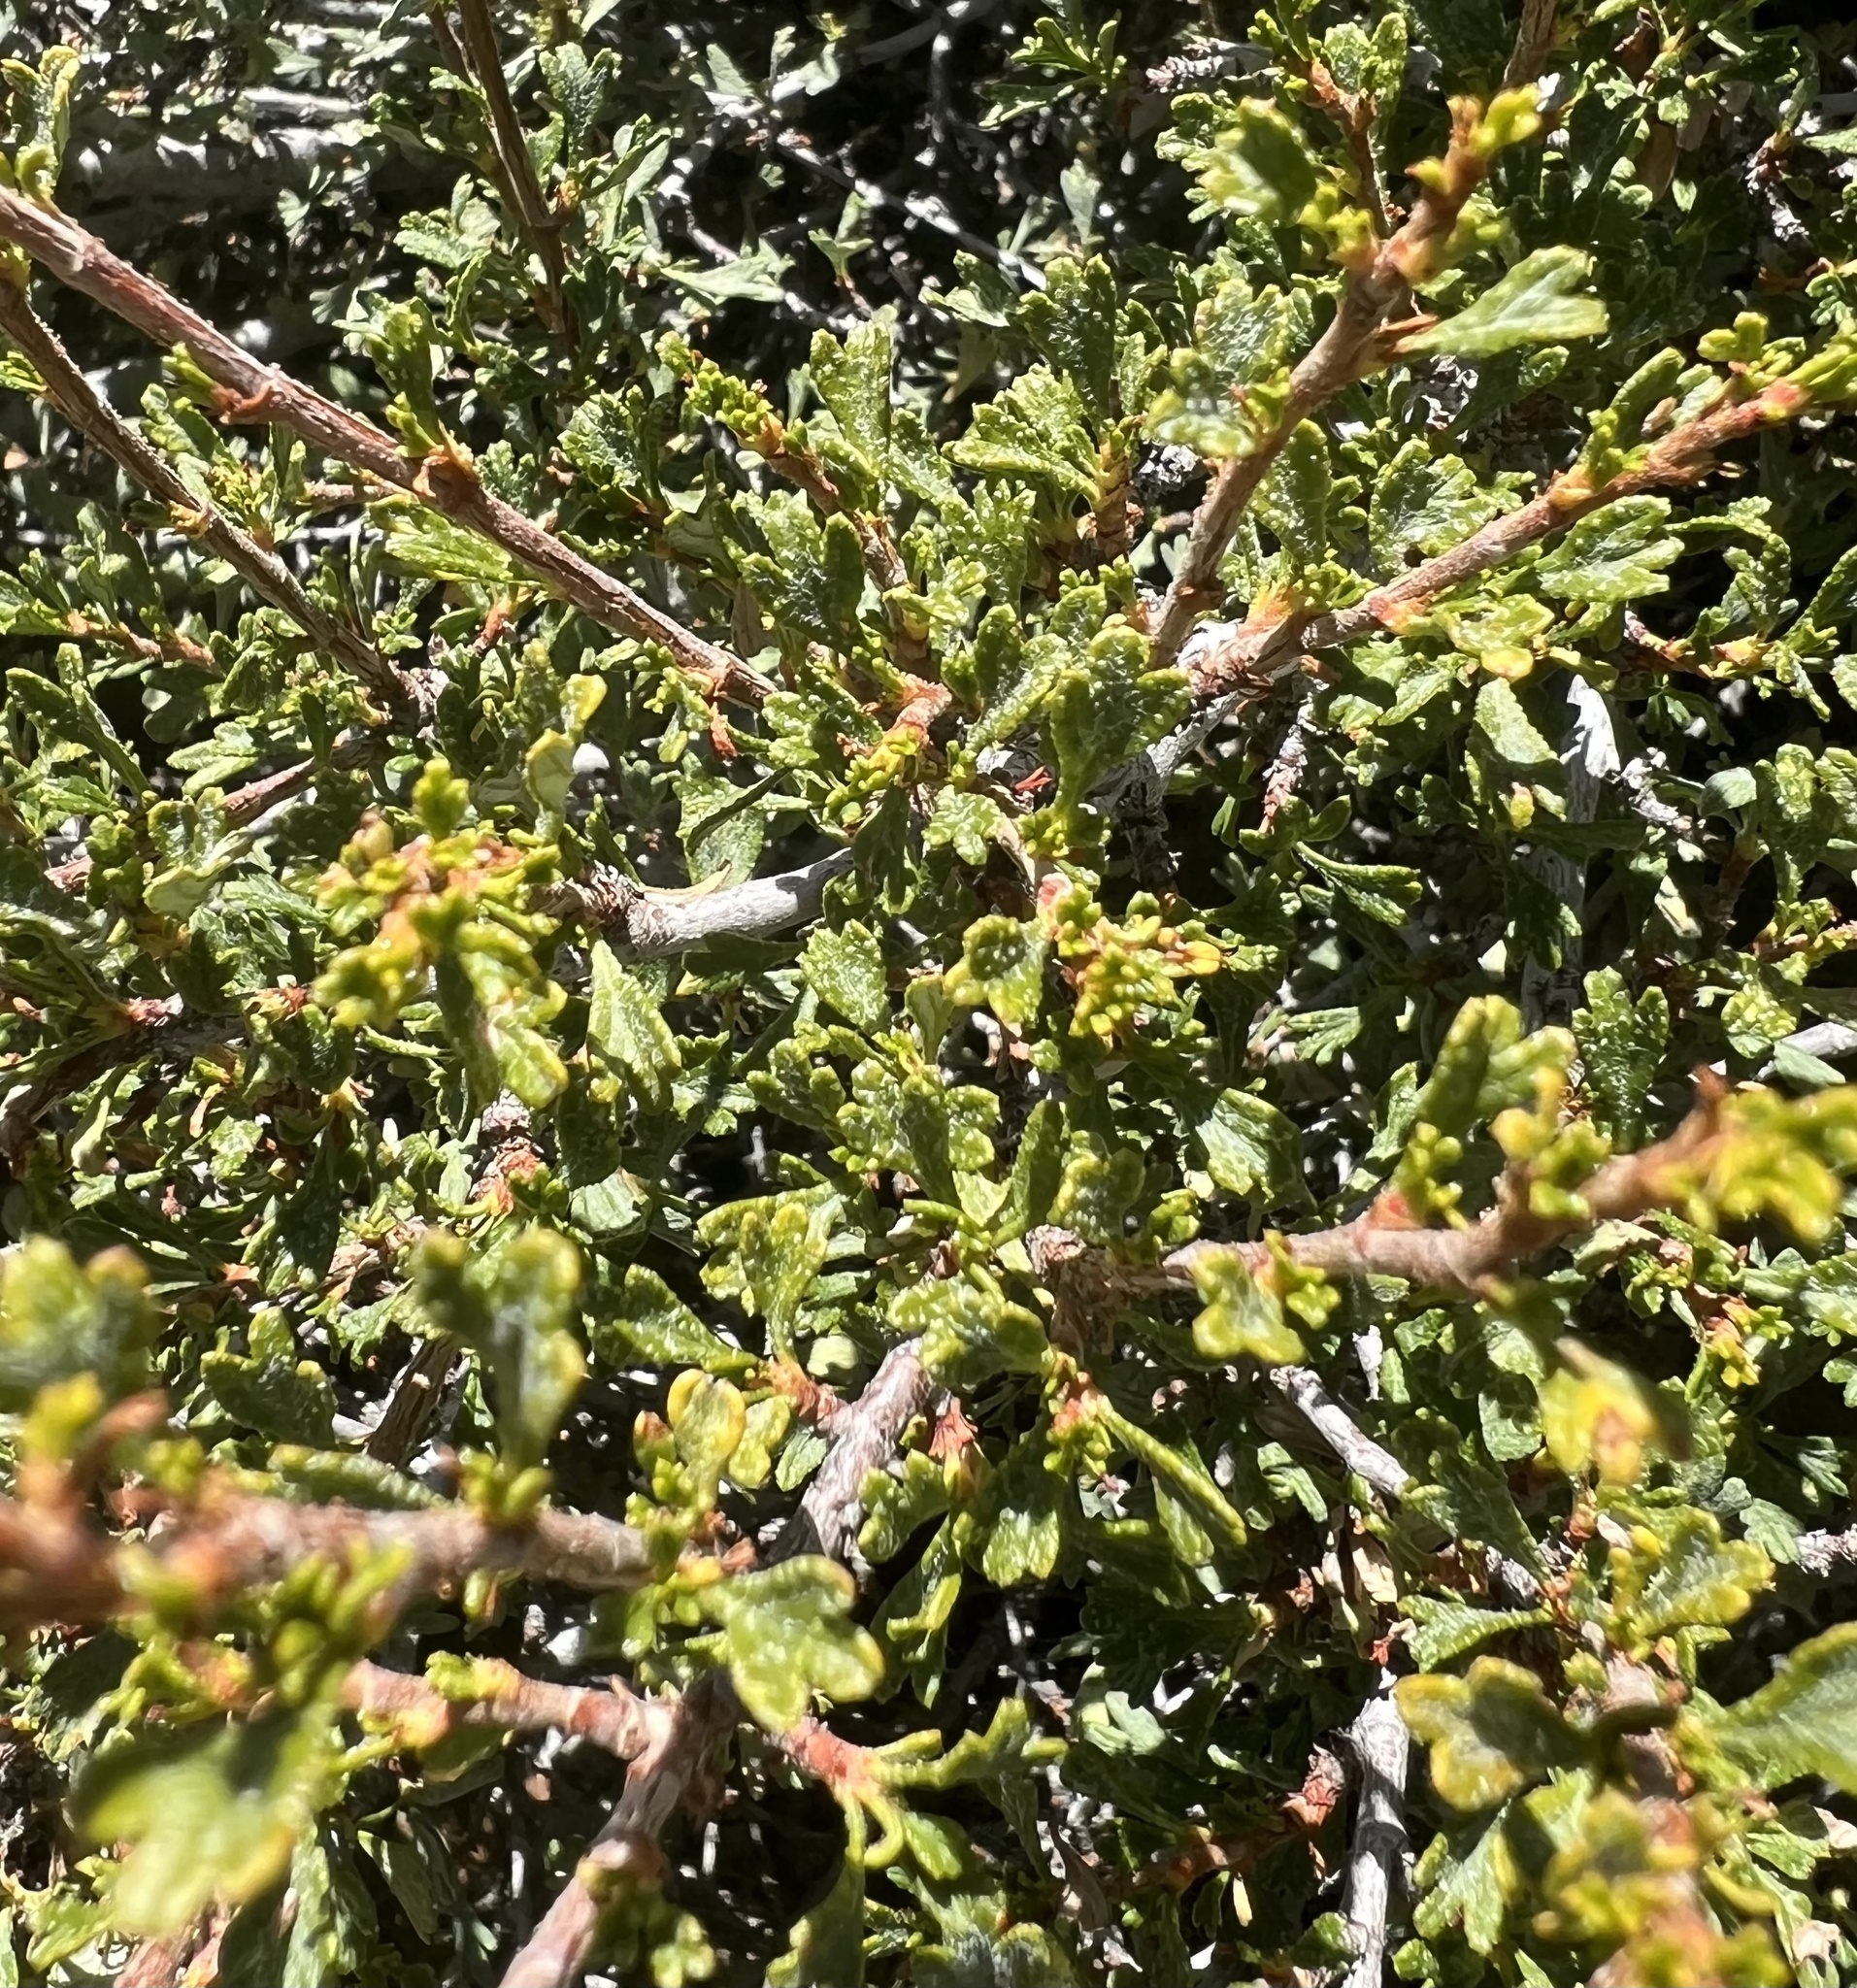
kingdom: Plantae
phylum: Tracheophyta
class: Magnoliopsida
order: Rosales
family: Rosaceae
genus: Purshia
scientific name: Purshia tridentata
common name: Antelope bitterbrush
